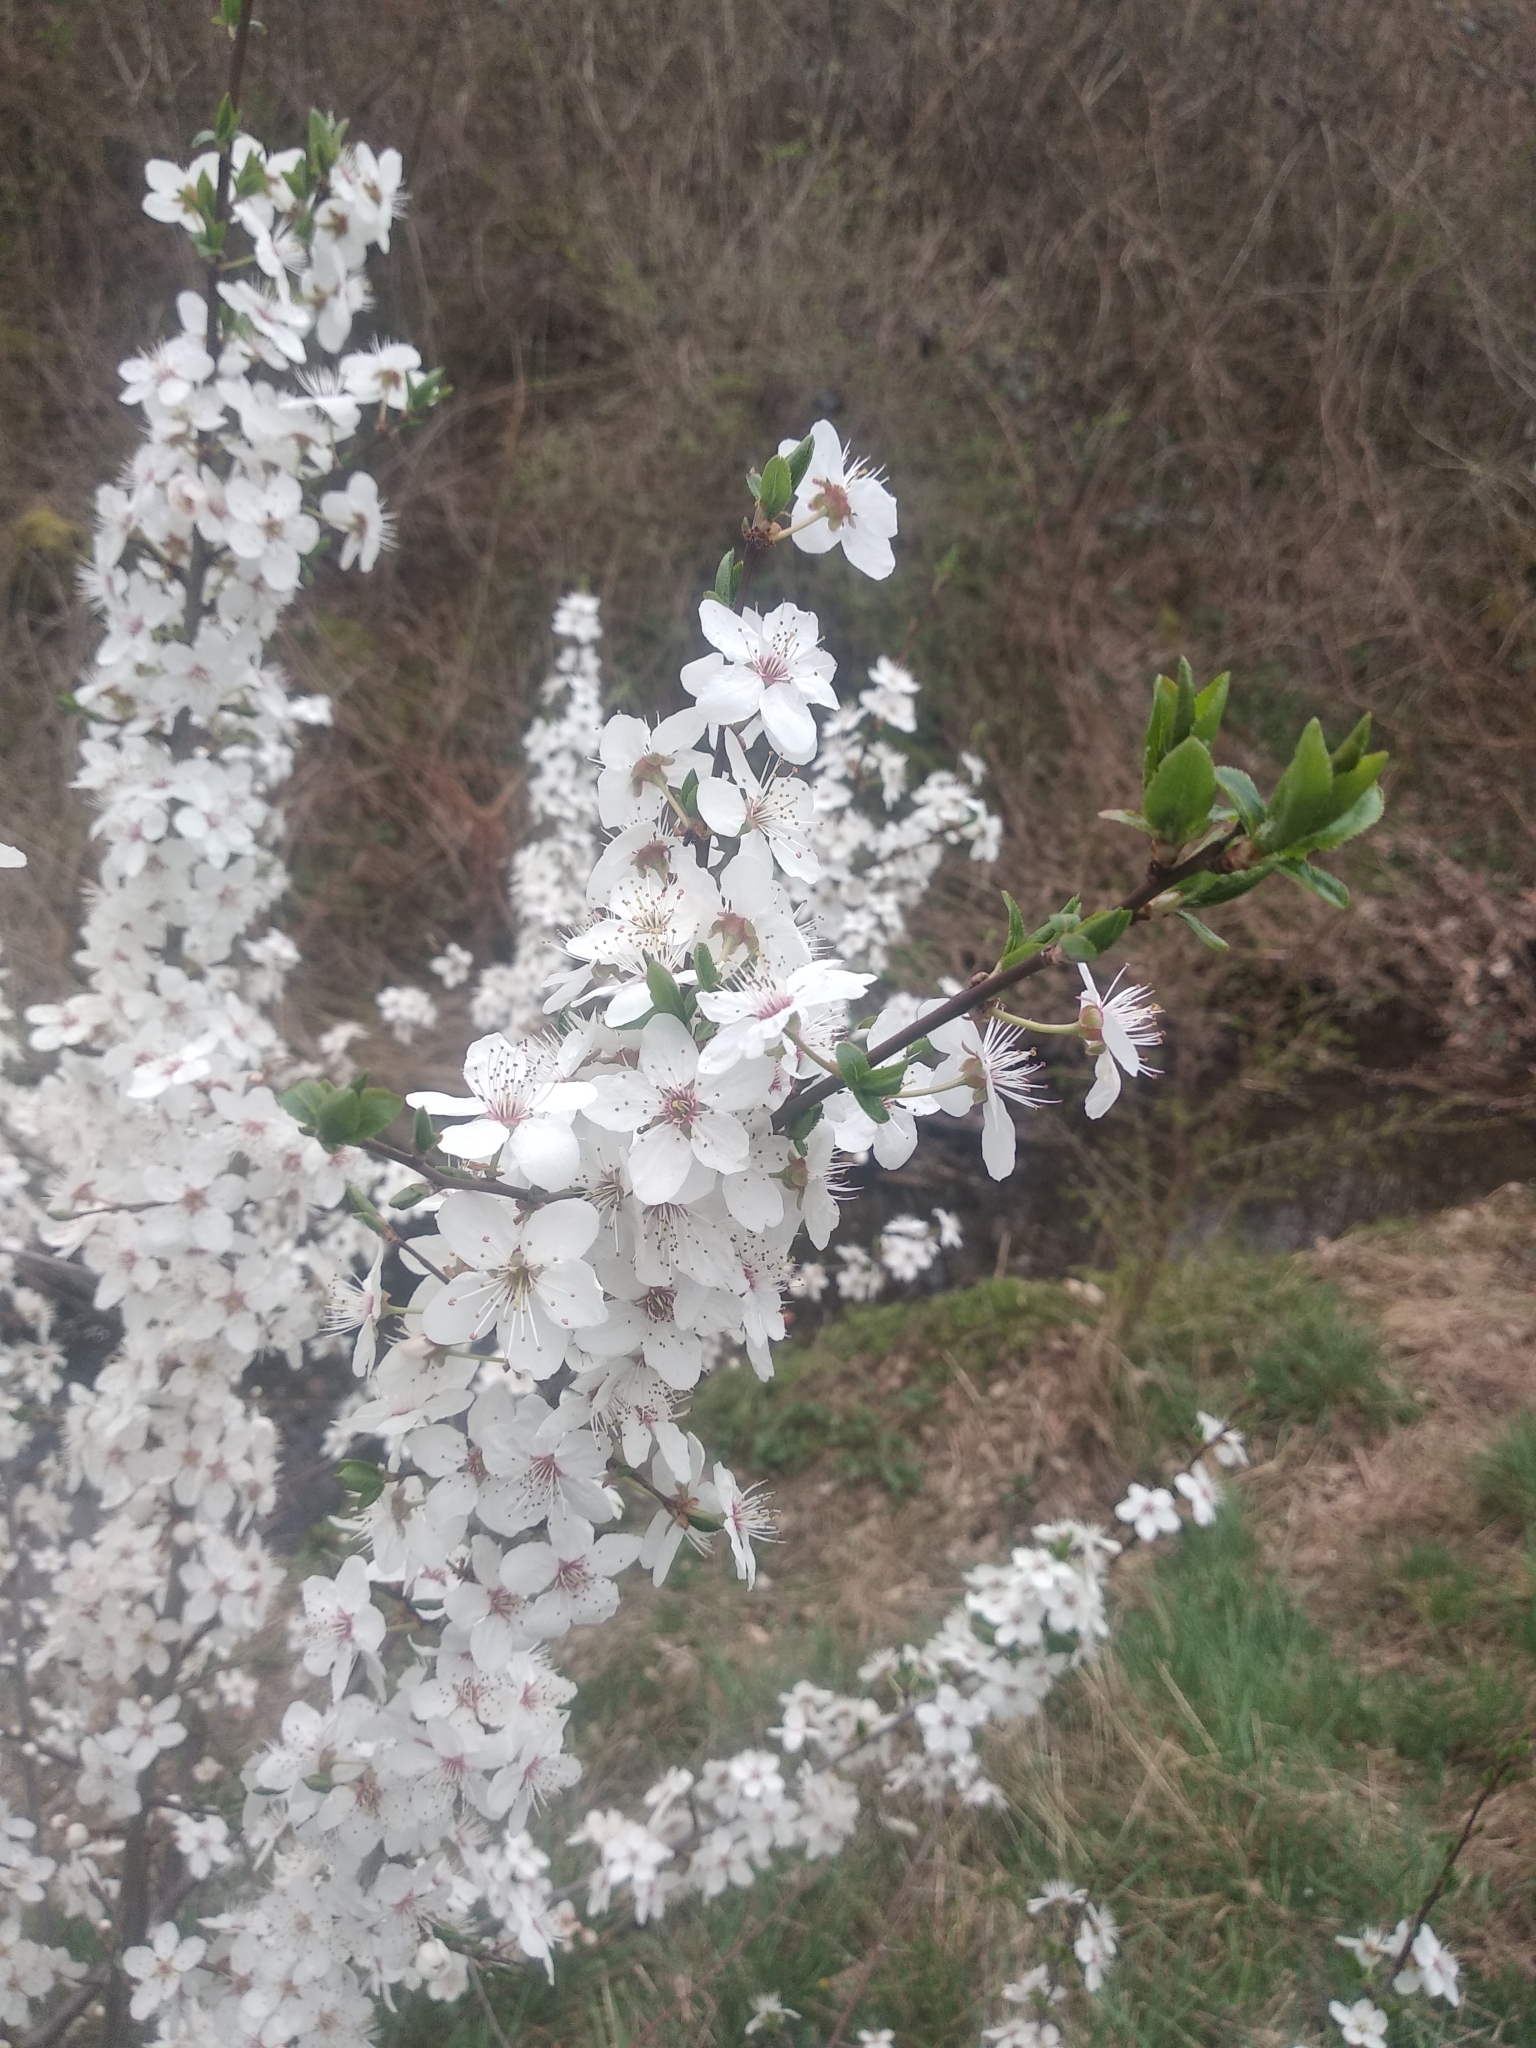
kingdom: Plantae
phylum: Tracheophyta
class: Magnoliopsida
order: Rosales
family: Rosaceae
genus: Prunus
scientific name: Prunus cerasifera
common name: Cherry plum
